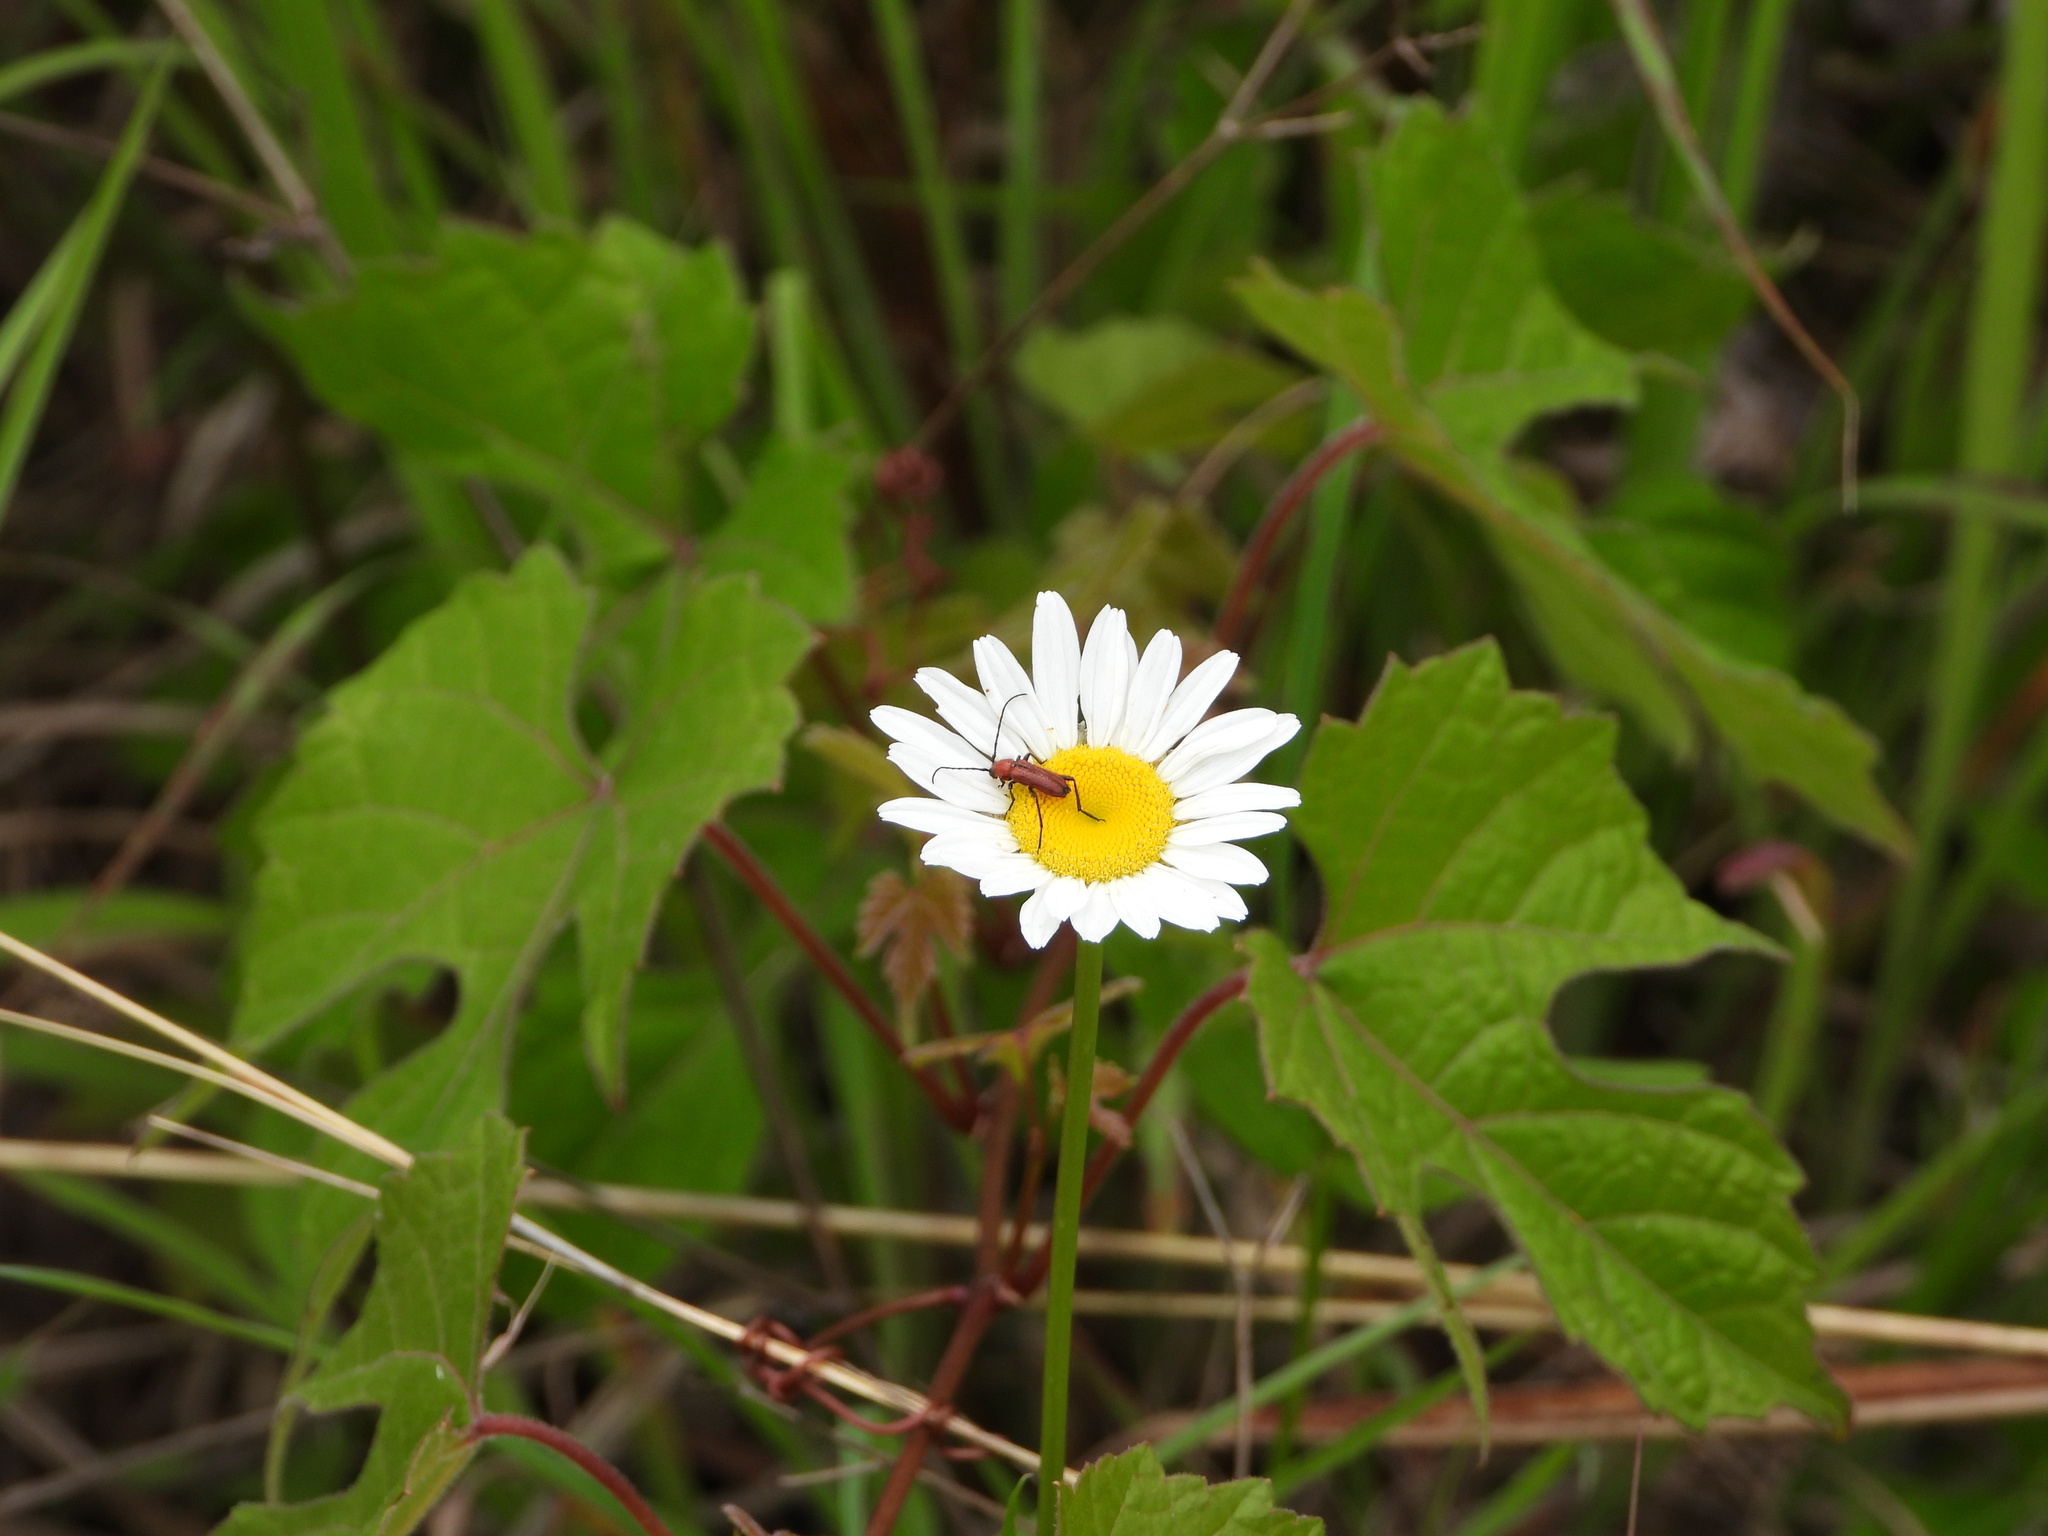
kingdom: Plantae
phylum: Tracheophyta
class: Magnoliopsida
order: Asterales
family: Asteraceae
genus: Leucanthemum
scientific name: Leucanthemum vulgare
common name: Oxeye daisy
